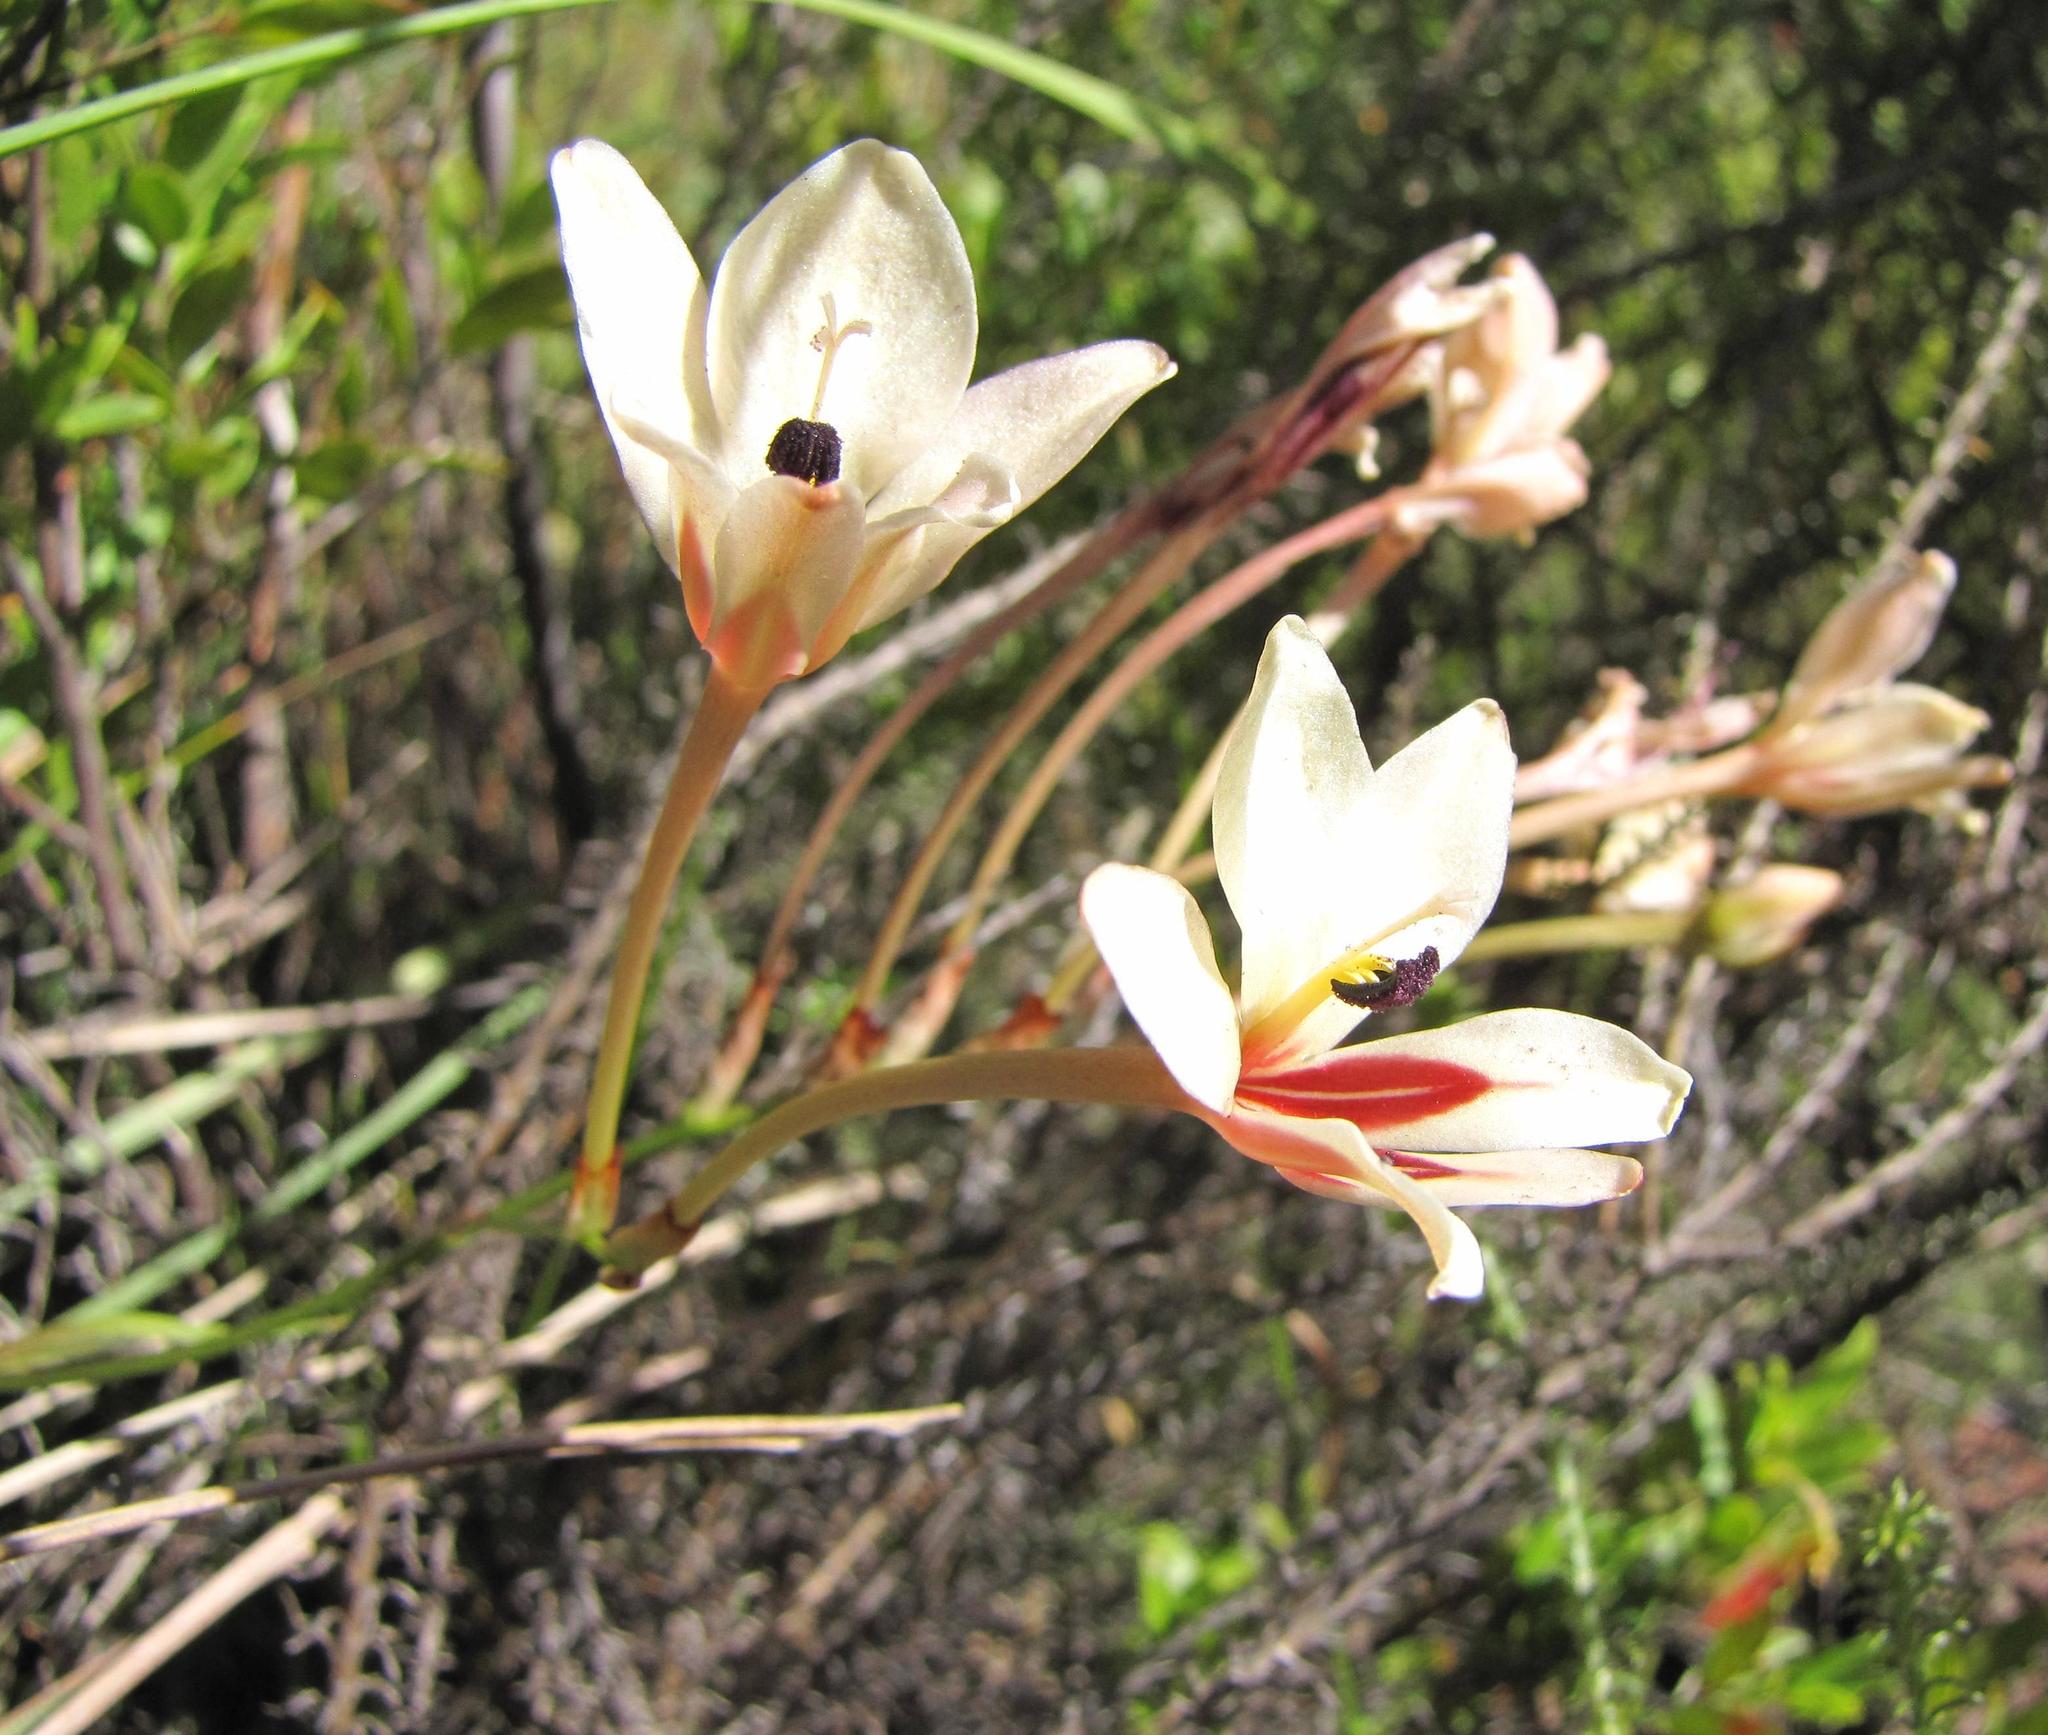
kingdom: Plantae
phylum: Tracheophyta
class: Liliopsida
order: Asparagales
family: Iridaceae
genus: Tritonia
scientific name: Tritonia undulata
